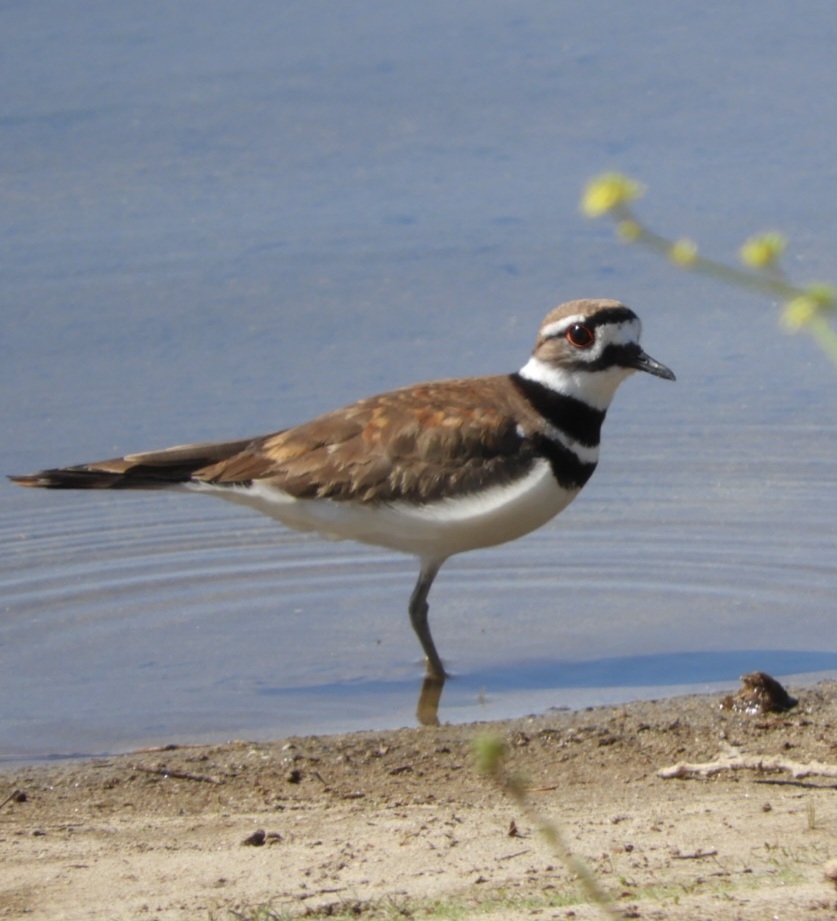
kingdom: Animalia
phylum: Chordata
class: Aves
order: Charadriiformes
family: Charadriidae
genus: Charadrius
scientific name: Charadrius vociferus
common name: Killdeer
